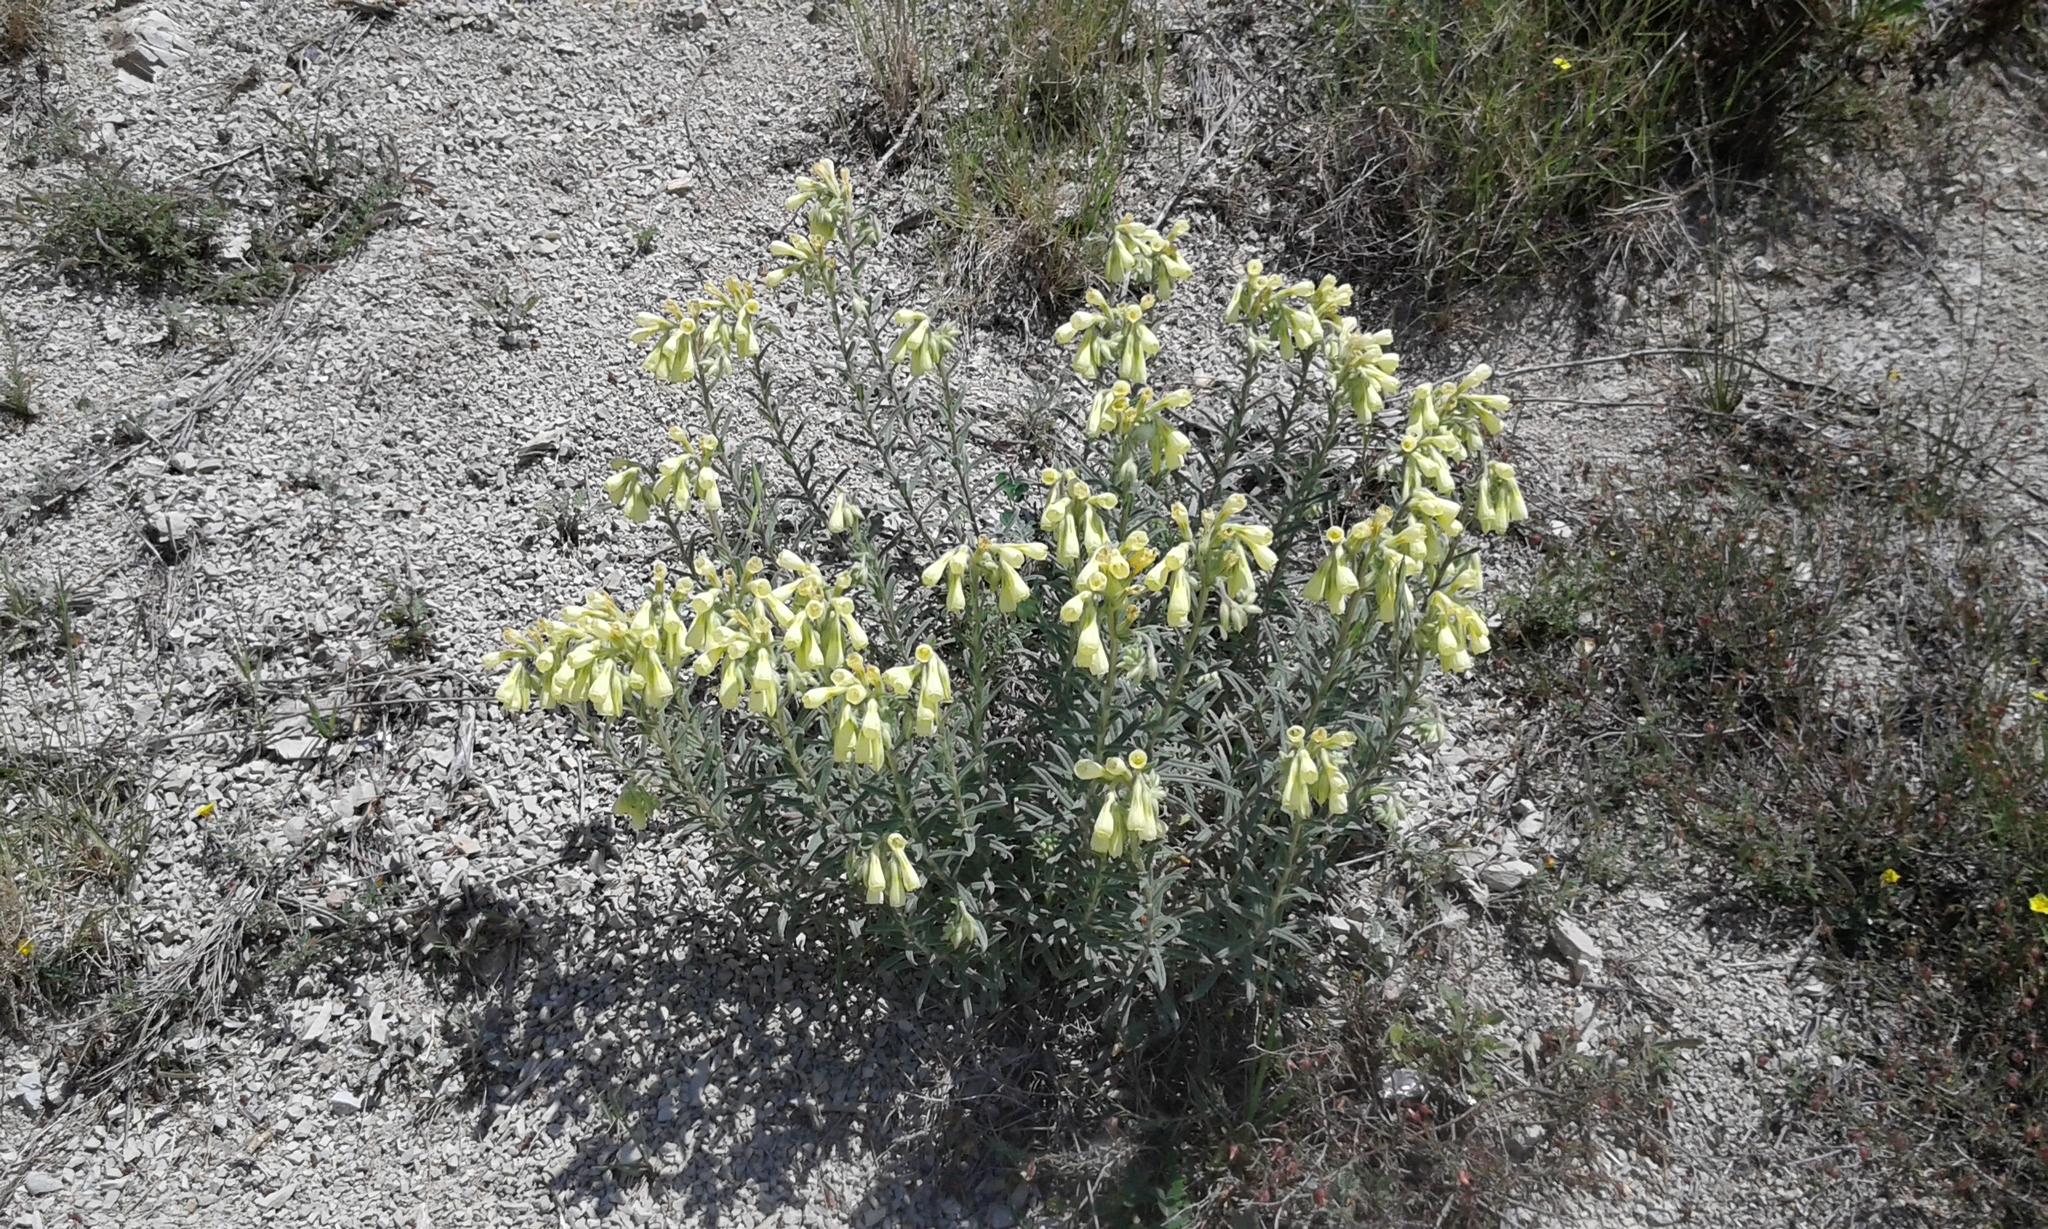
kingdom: Plantae
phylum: Tracheophyta
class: Magnoliopsida
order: Boraginales
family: Boraginaceae
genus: Onosma
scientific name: Onosma echioides
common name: Goldendrop
